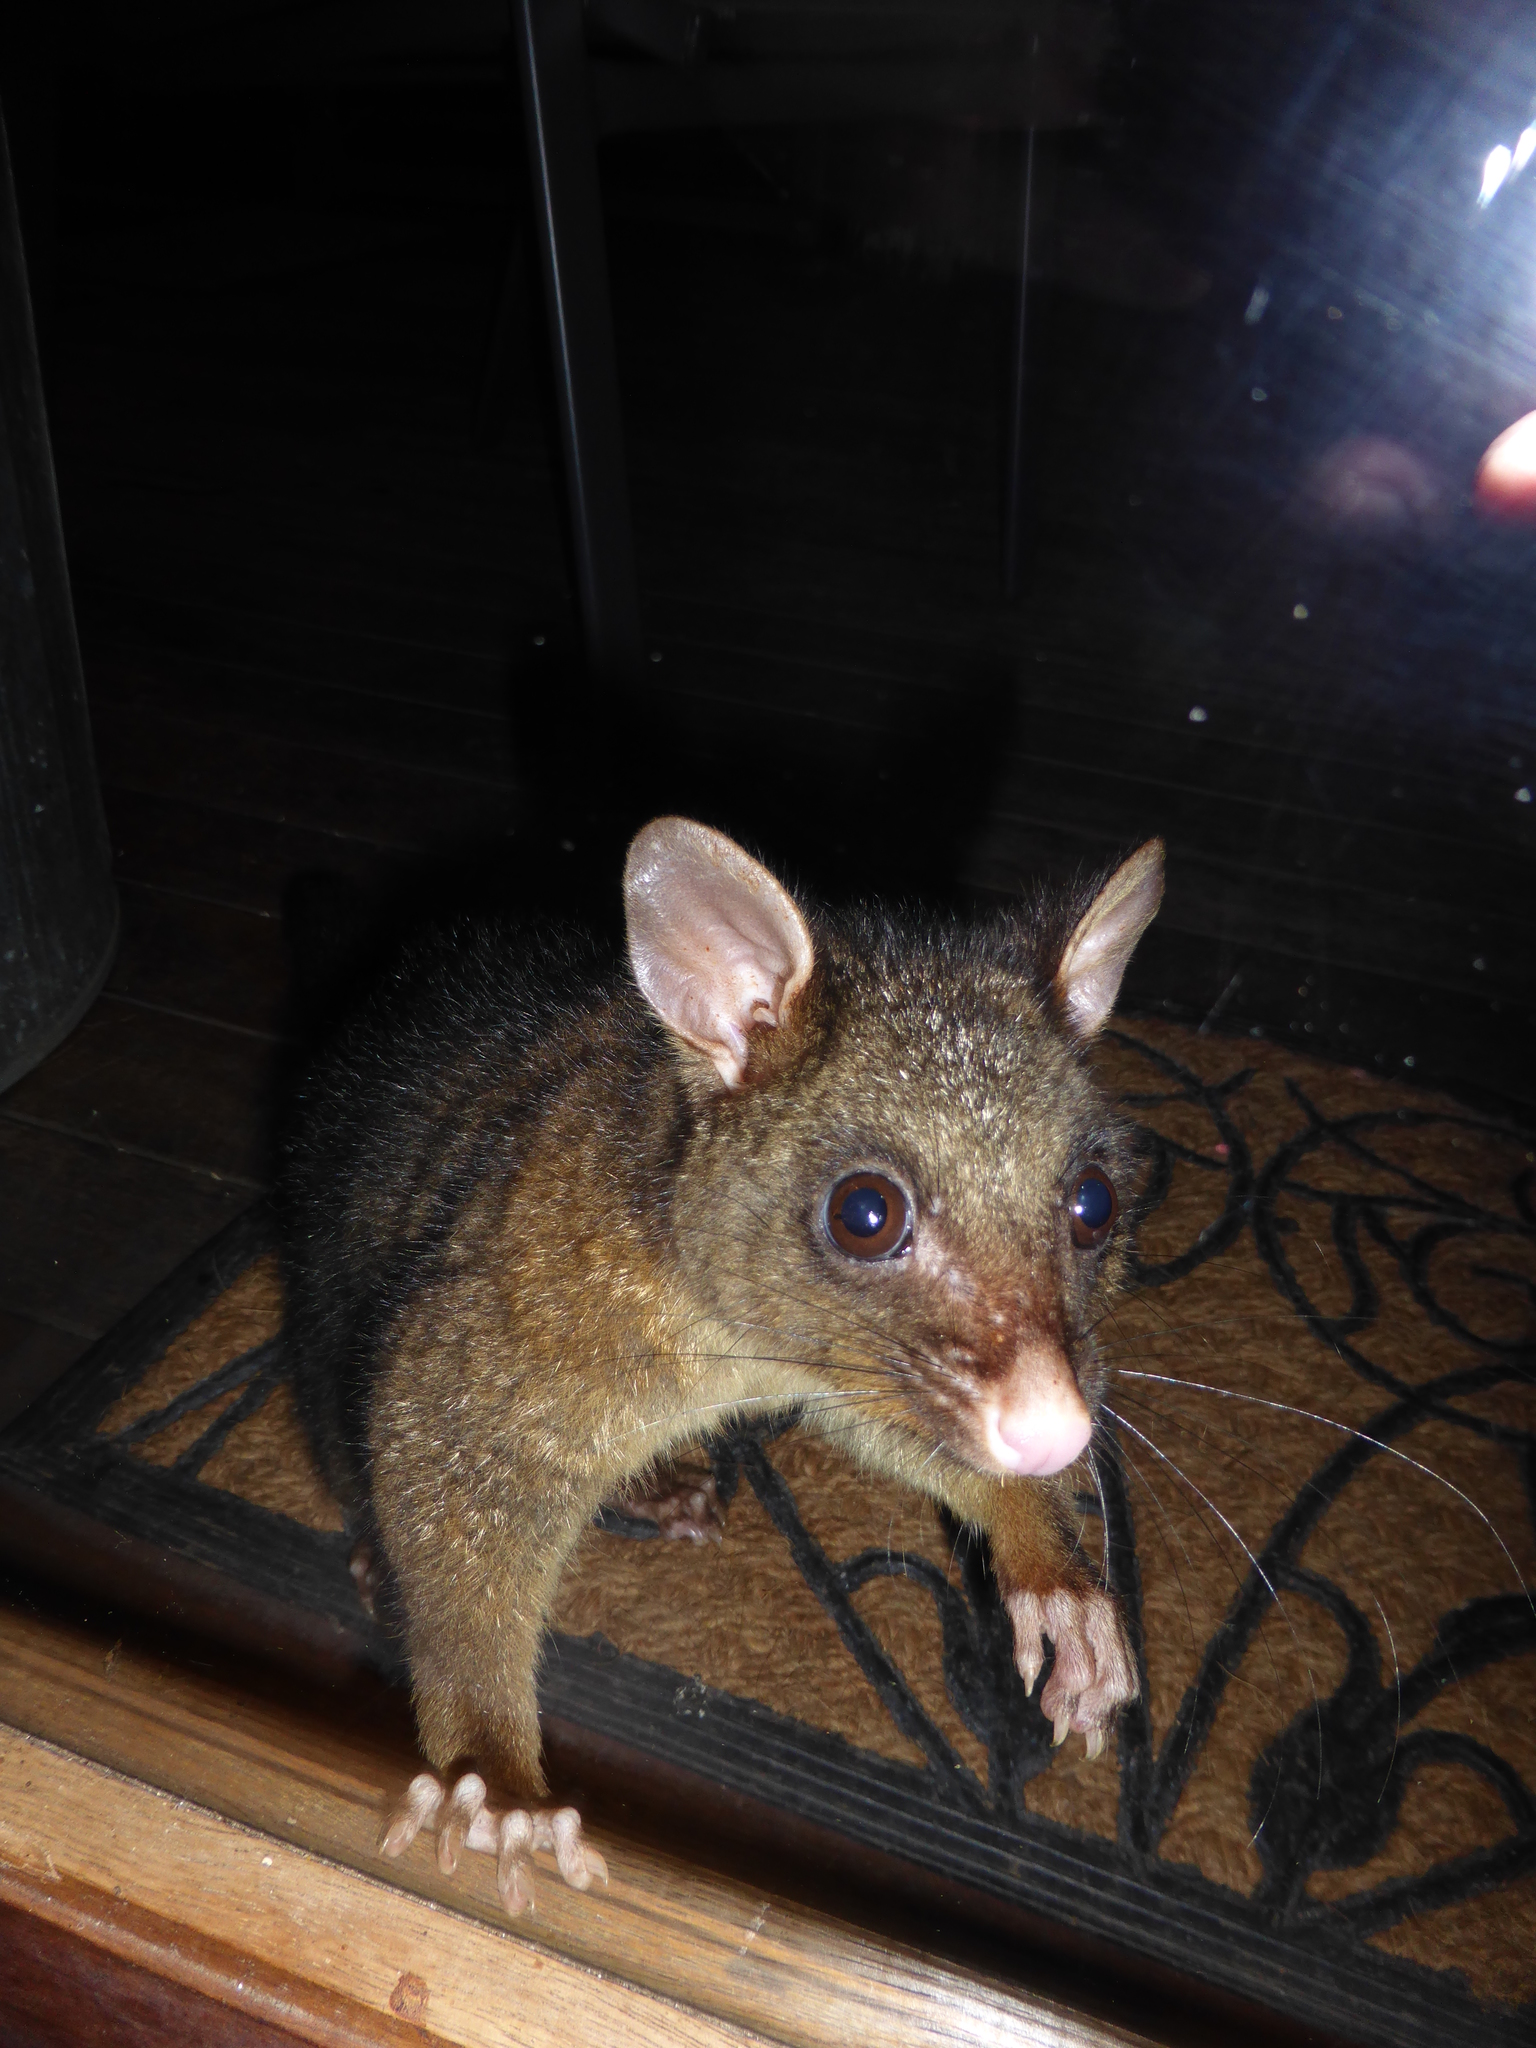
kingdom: Animalia
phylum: Chordata
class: Mammalia
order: Diprotodontia
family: Phalangeridae
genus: Trichosurus
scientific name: Trichosurus vulpecula
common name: Common brushtail
